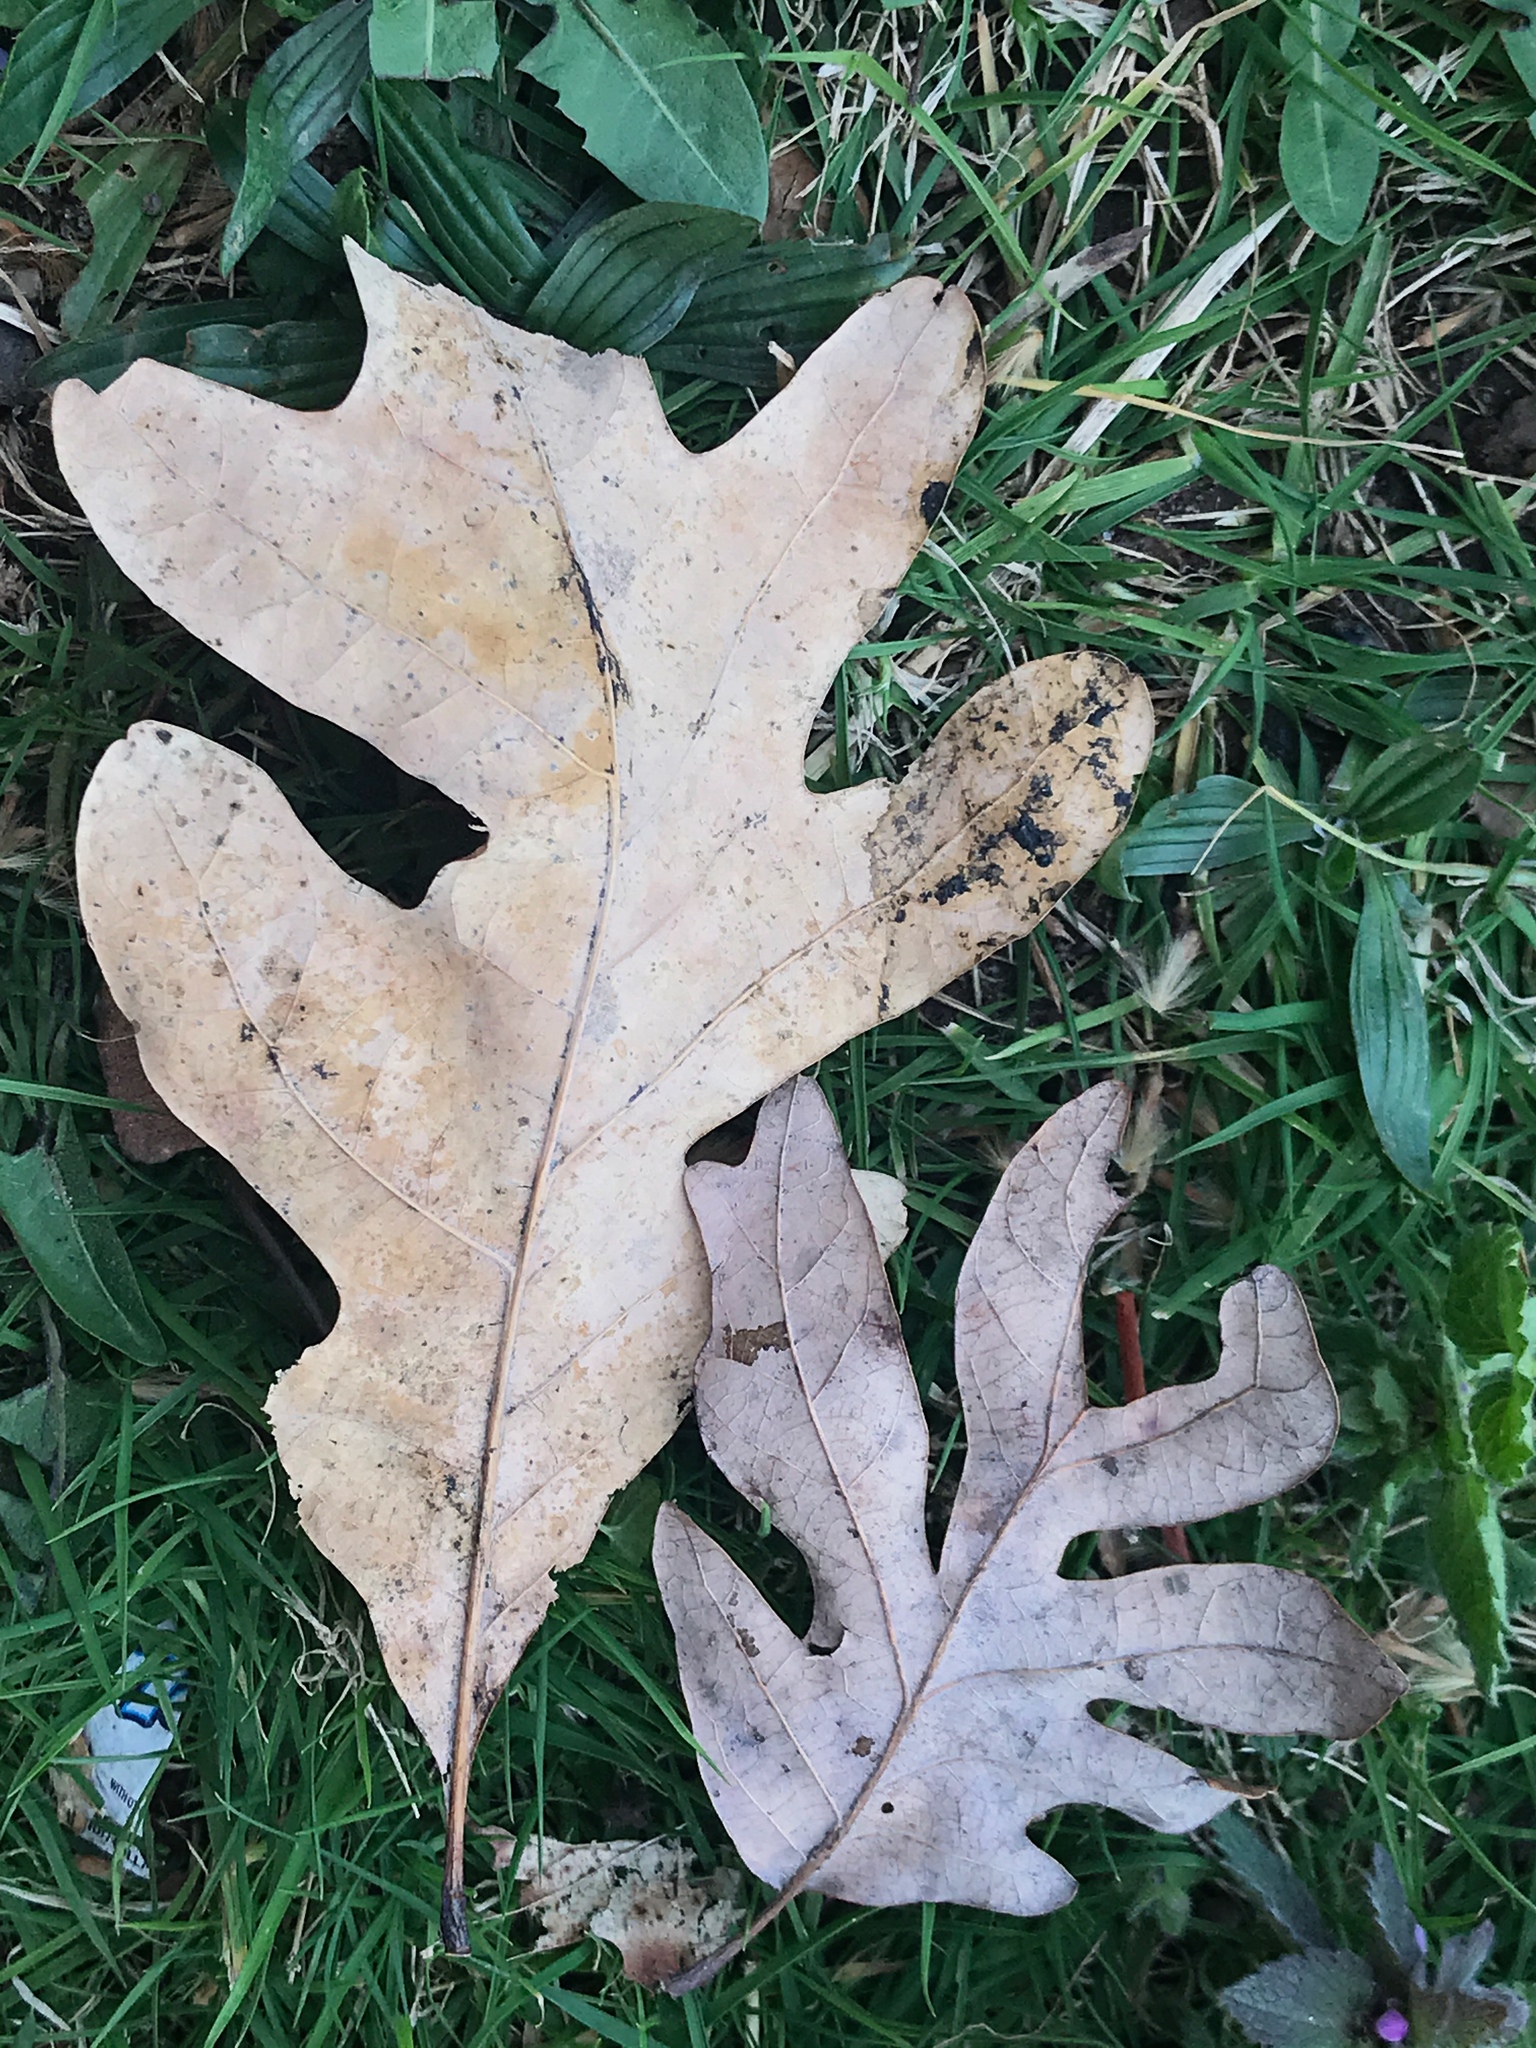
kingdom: Plantae
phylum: Tracheophyta
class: Magnoliopsida
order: Fagales
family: Fagaceae
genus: Quercus
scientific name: Quercus alba
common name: White oak
